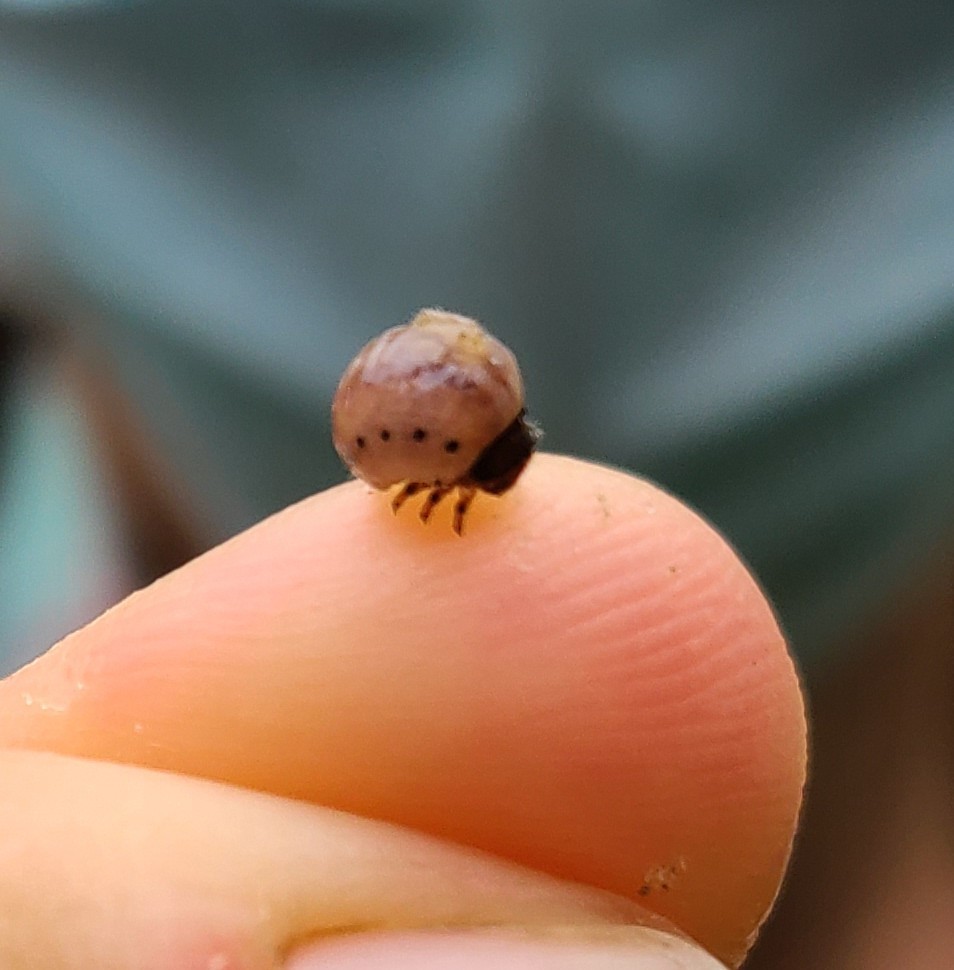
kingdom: Animalia
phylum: Arthropoda
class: Insecta
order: Coleoptera
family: Chrysomelidae
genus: Labidomera
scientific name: Labidomera clivicollis
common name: Swamp milkweed leaf beetle
